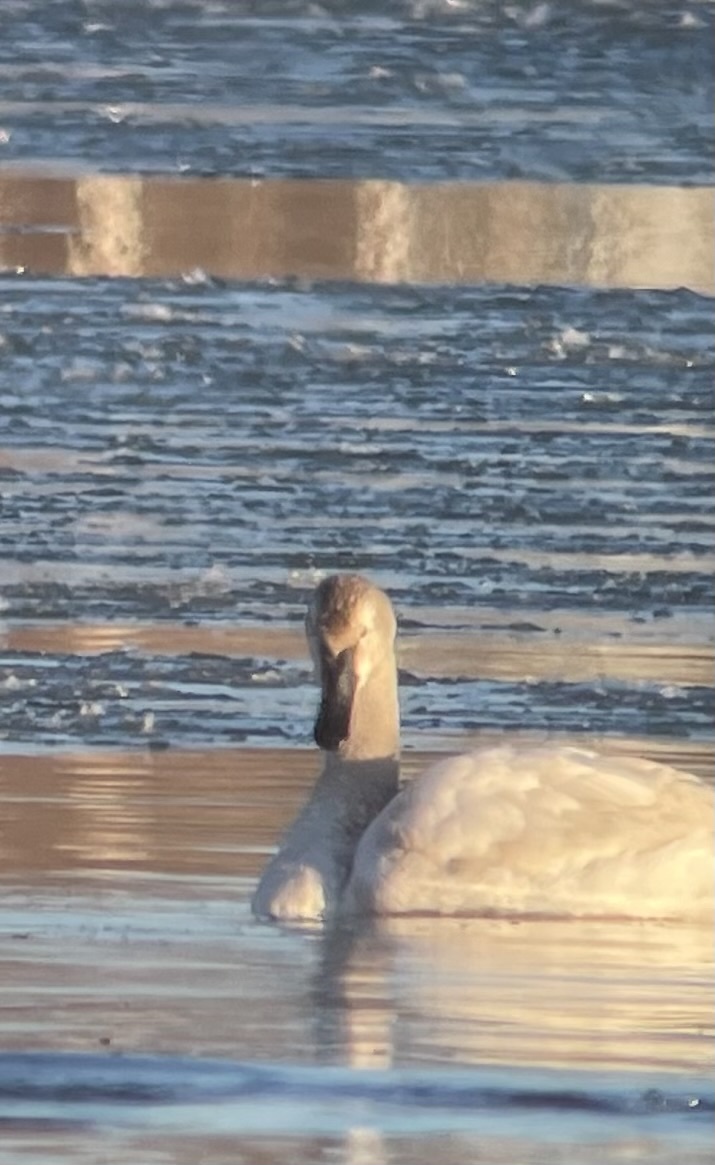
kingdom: Animalia
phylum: Chordata
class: Aves
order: Anseriformes
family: Anatidae
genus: Cygnus
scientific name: Cygnus buccinator
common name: Trumpeter swan
